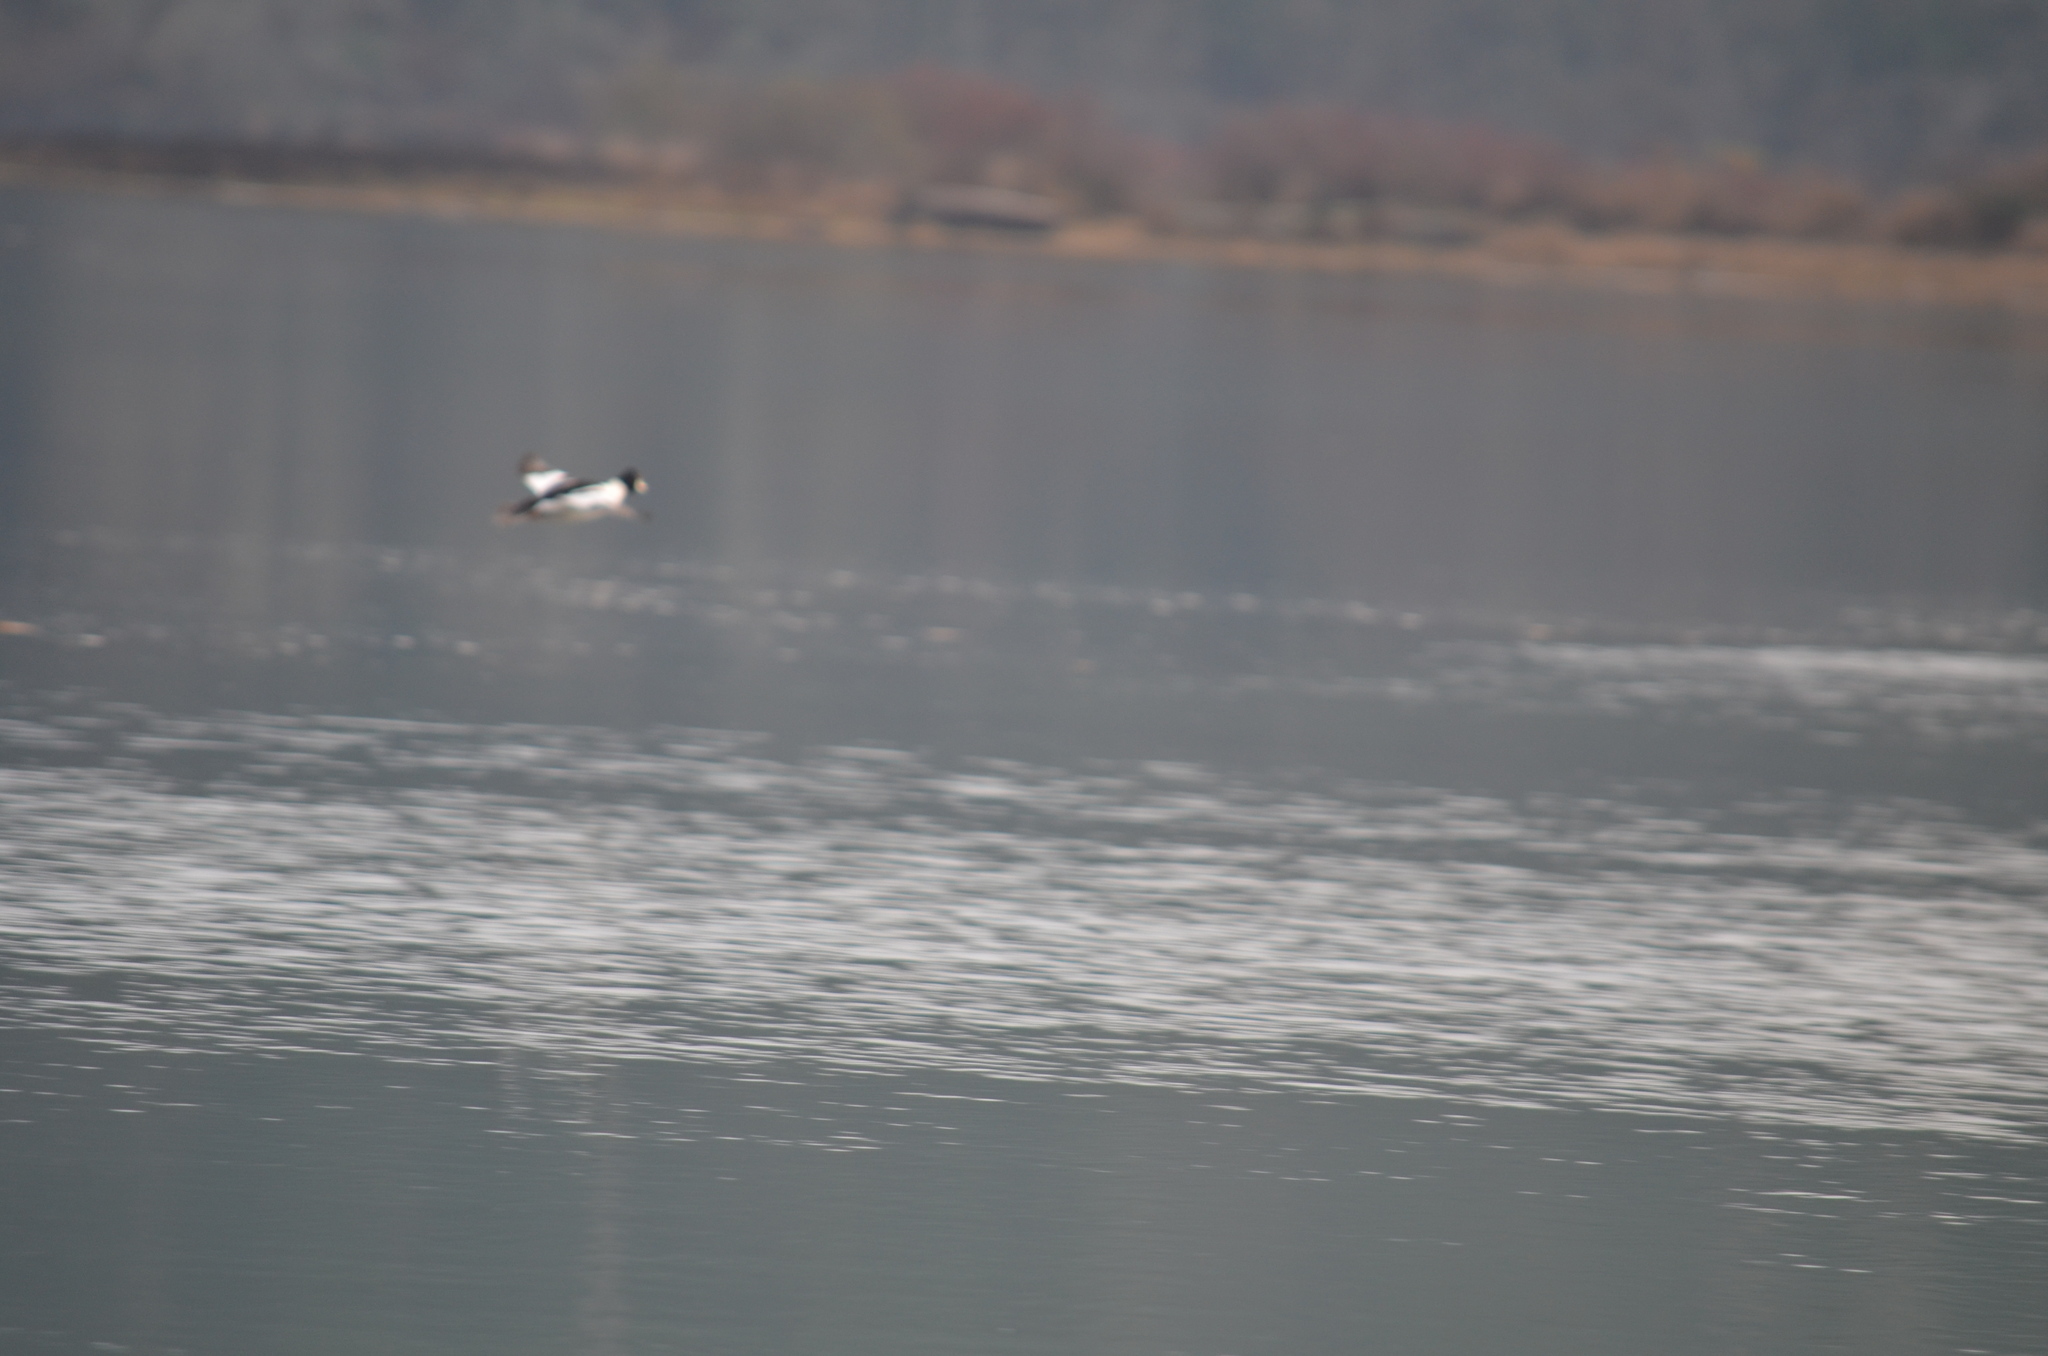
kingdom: Animalia
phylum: Chordata
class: Aves
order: Anseriformes
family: Anatidae
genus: Bucephala
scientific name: Bucephala clangula
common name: Common goldeneye
